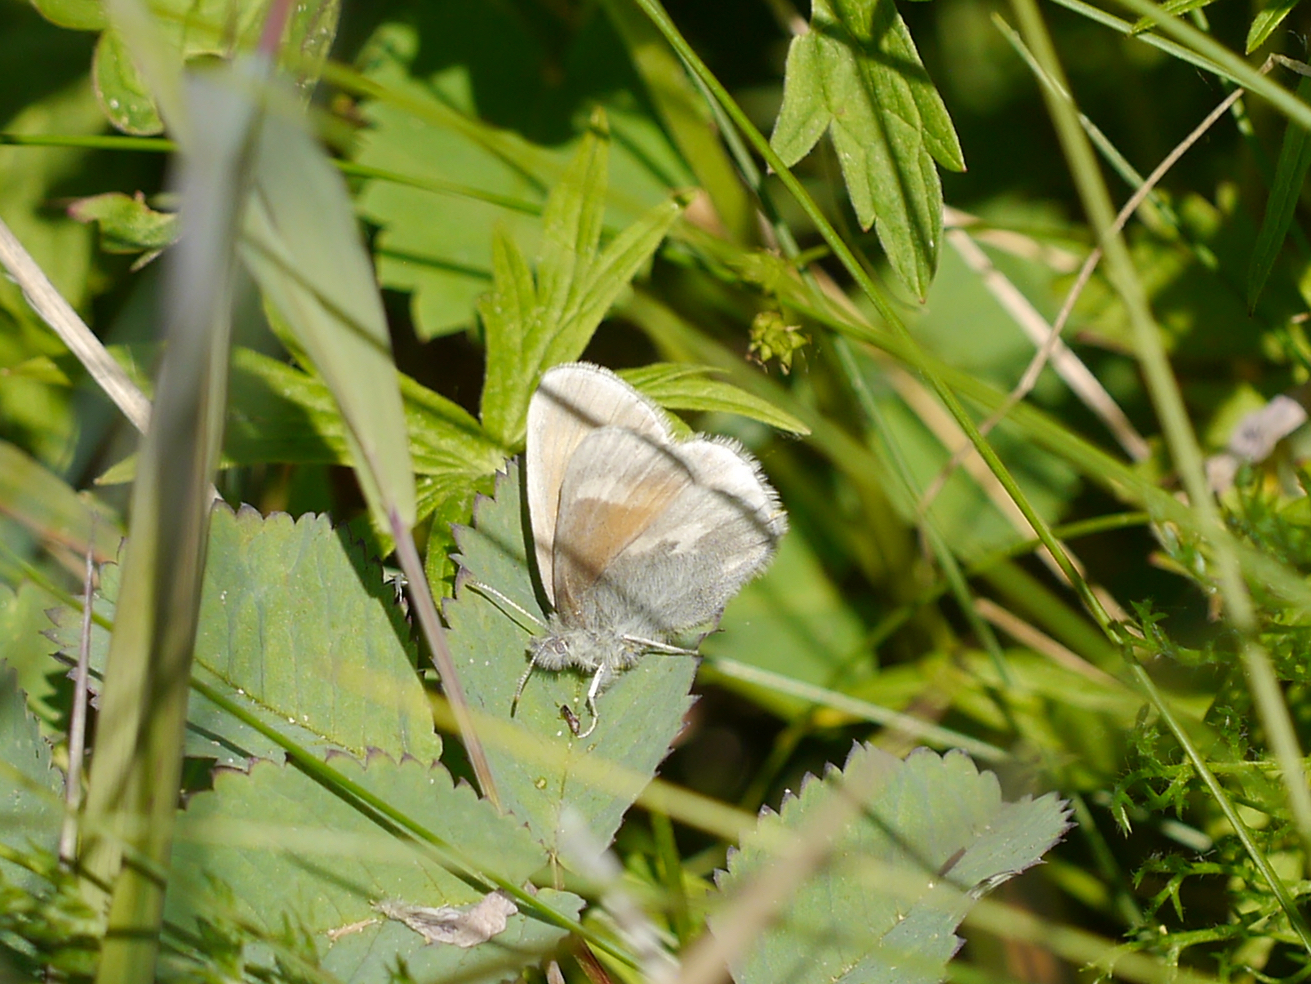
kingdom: Animalia
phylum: Arthropoda
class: Insecta
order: Lepidoptera
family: Nymphalidae
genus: Coenonympha
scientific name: Coenonympha tullia
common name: Large heath
